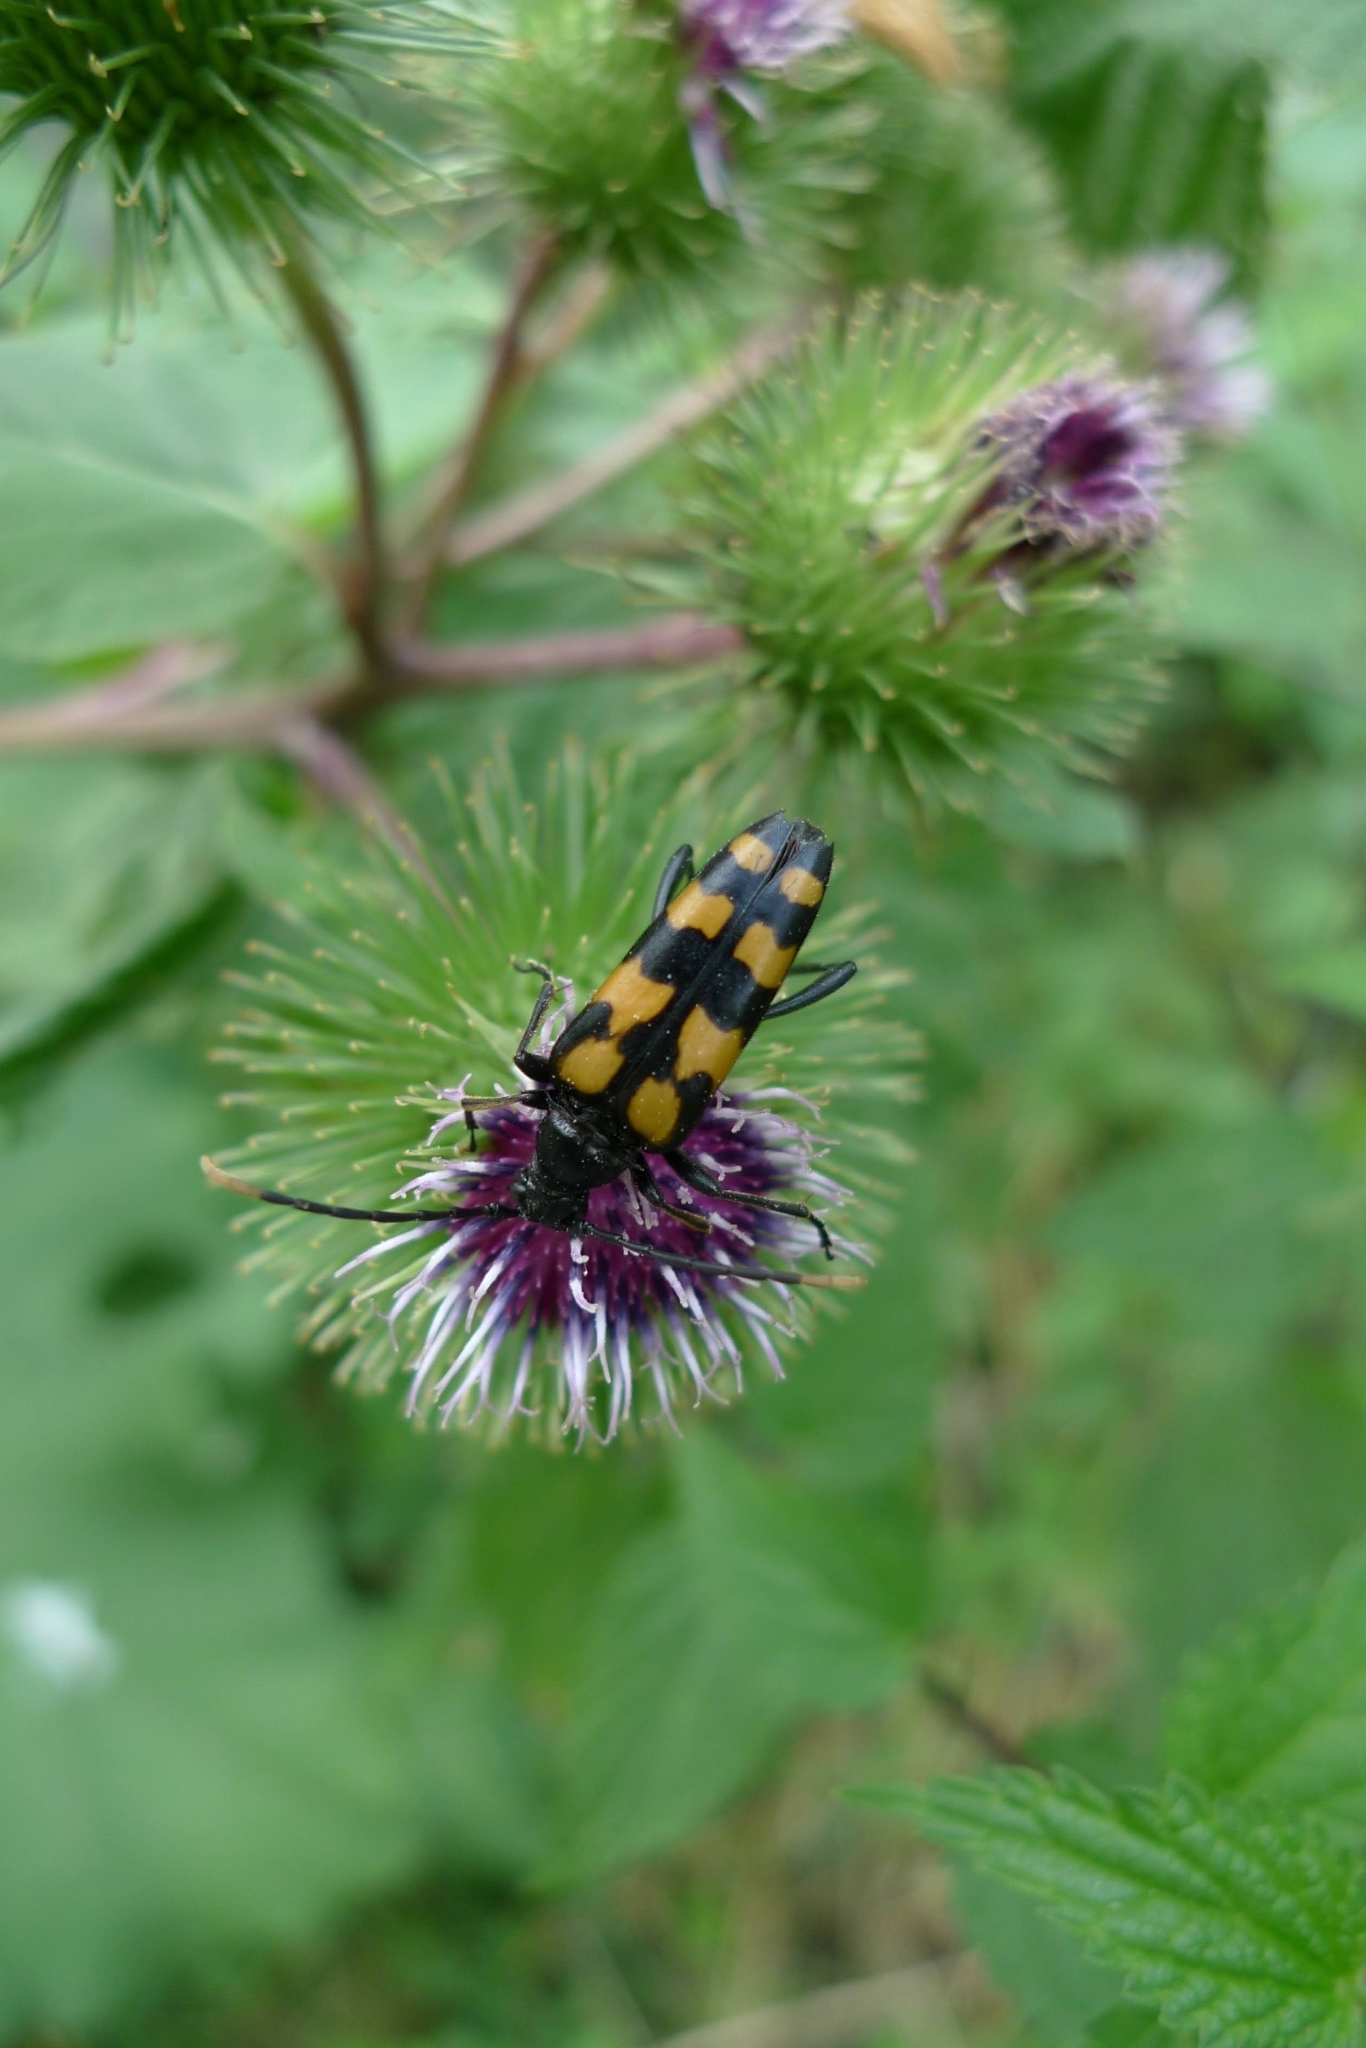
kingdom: Animalia
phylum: Arthropoda
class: Insecta
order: Coleoptera
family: Cerambycidae
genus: Leptura
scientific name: Leptura quadrifasciata
